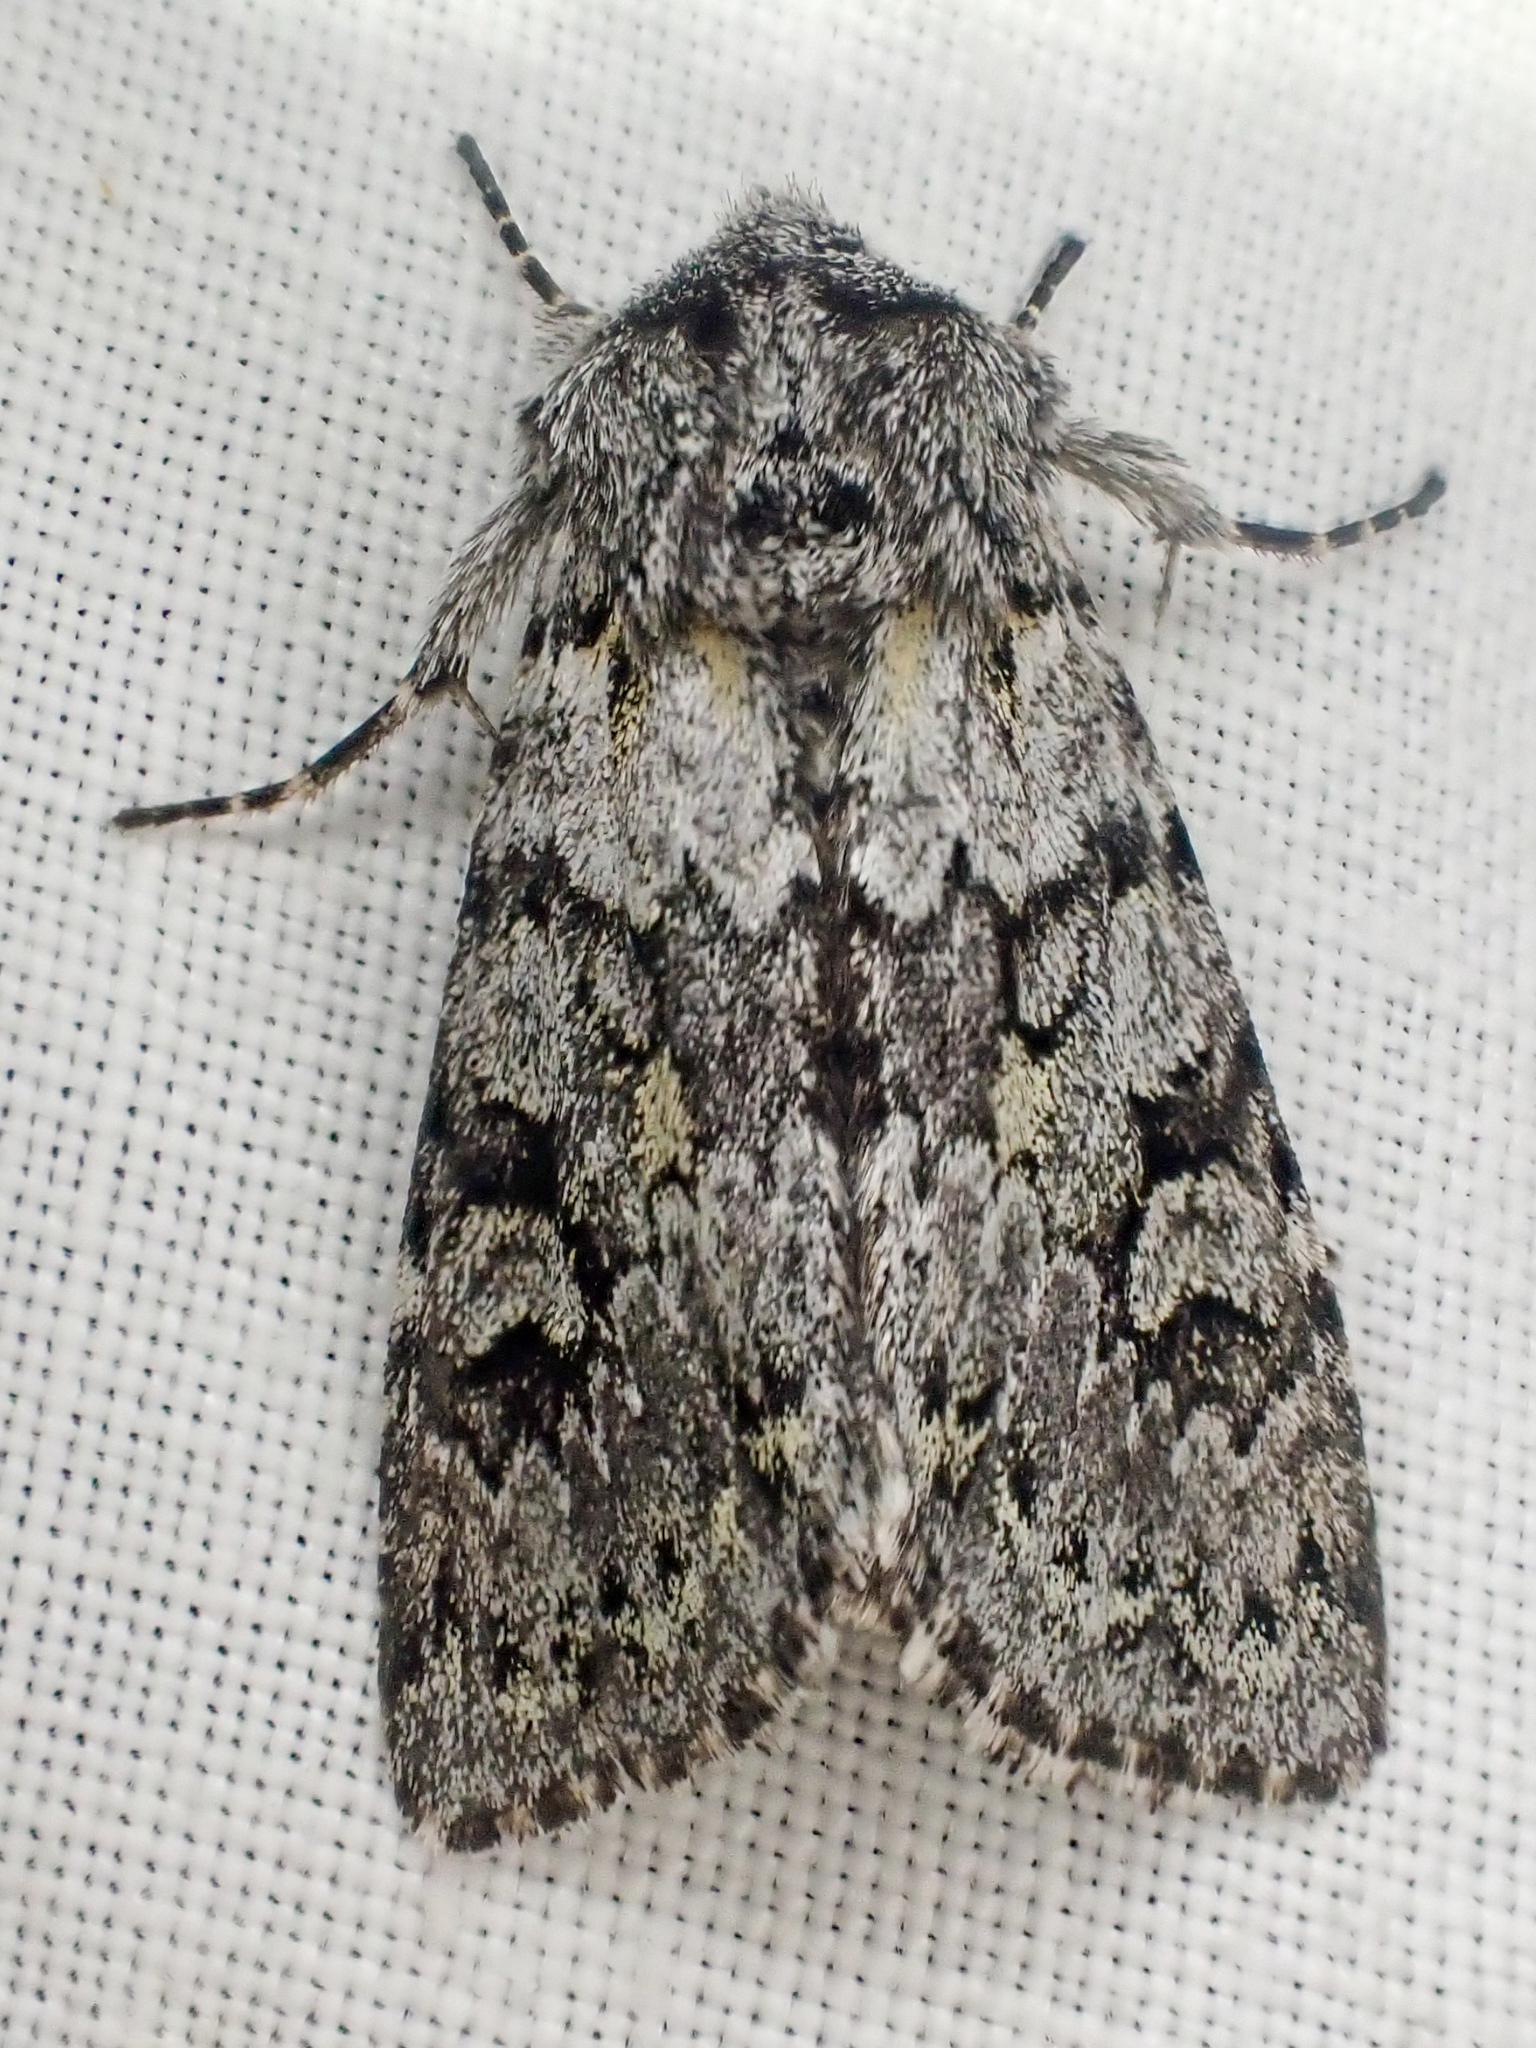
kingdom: Animalia
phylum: Arthropoda
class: Insecta
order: Lepidoptera
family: Noctuidae
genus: Lasionycta
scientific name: Lasionycta mutilata
